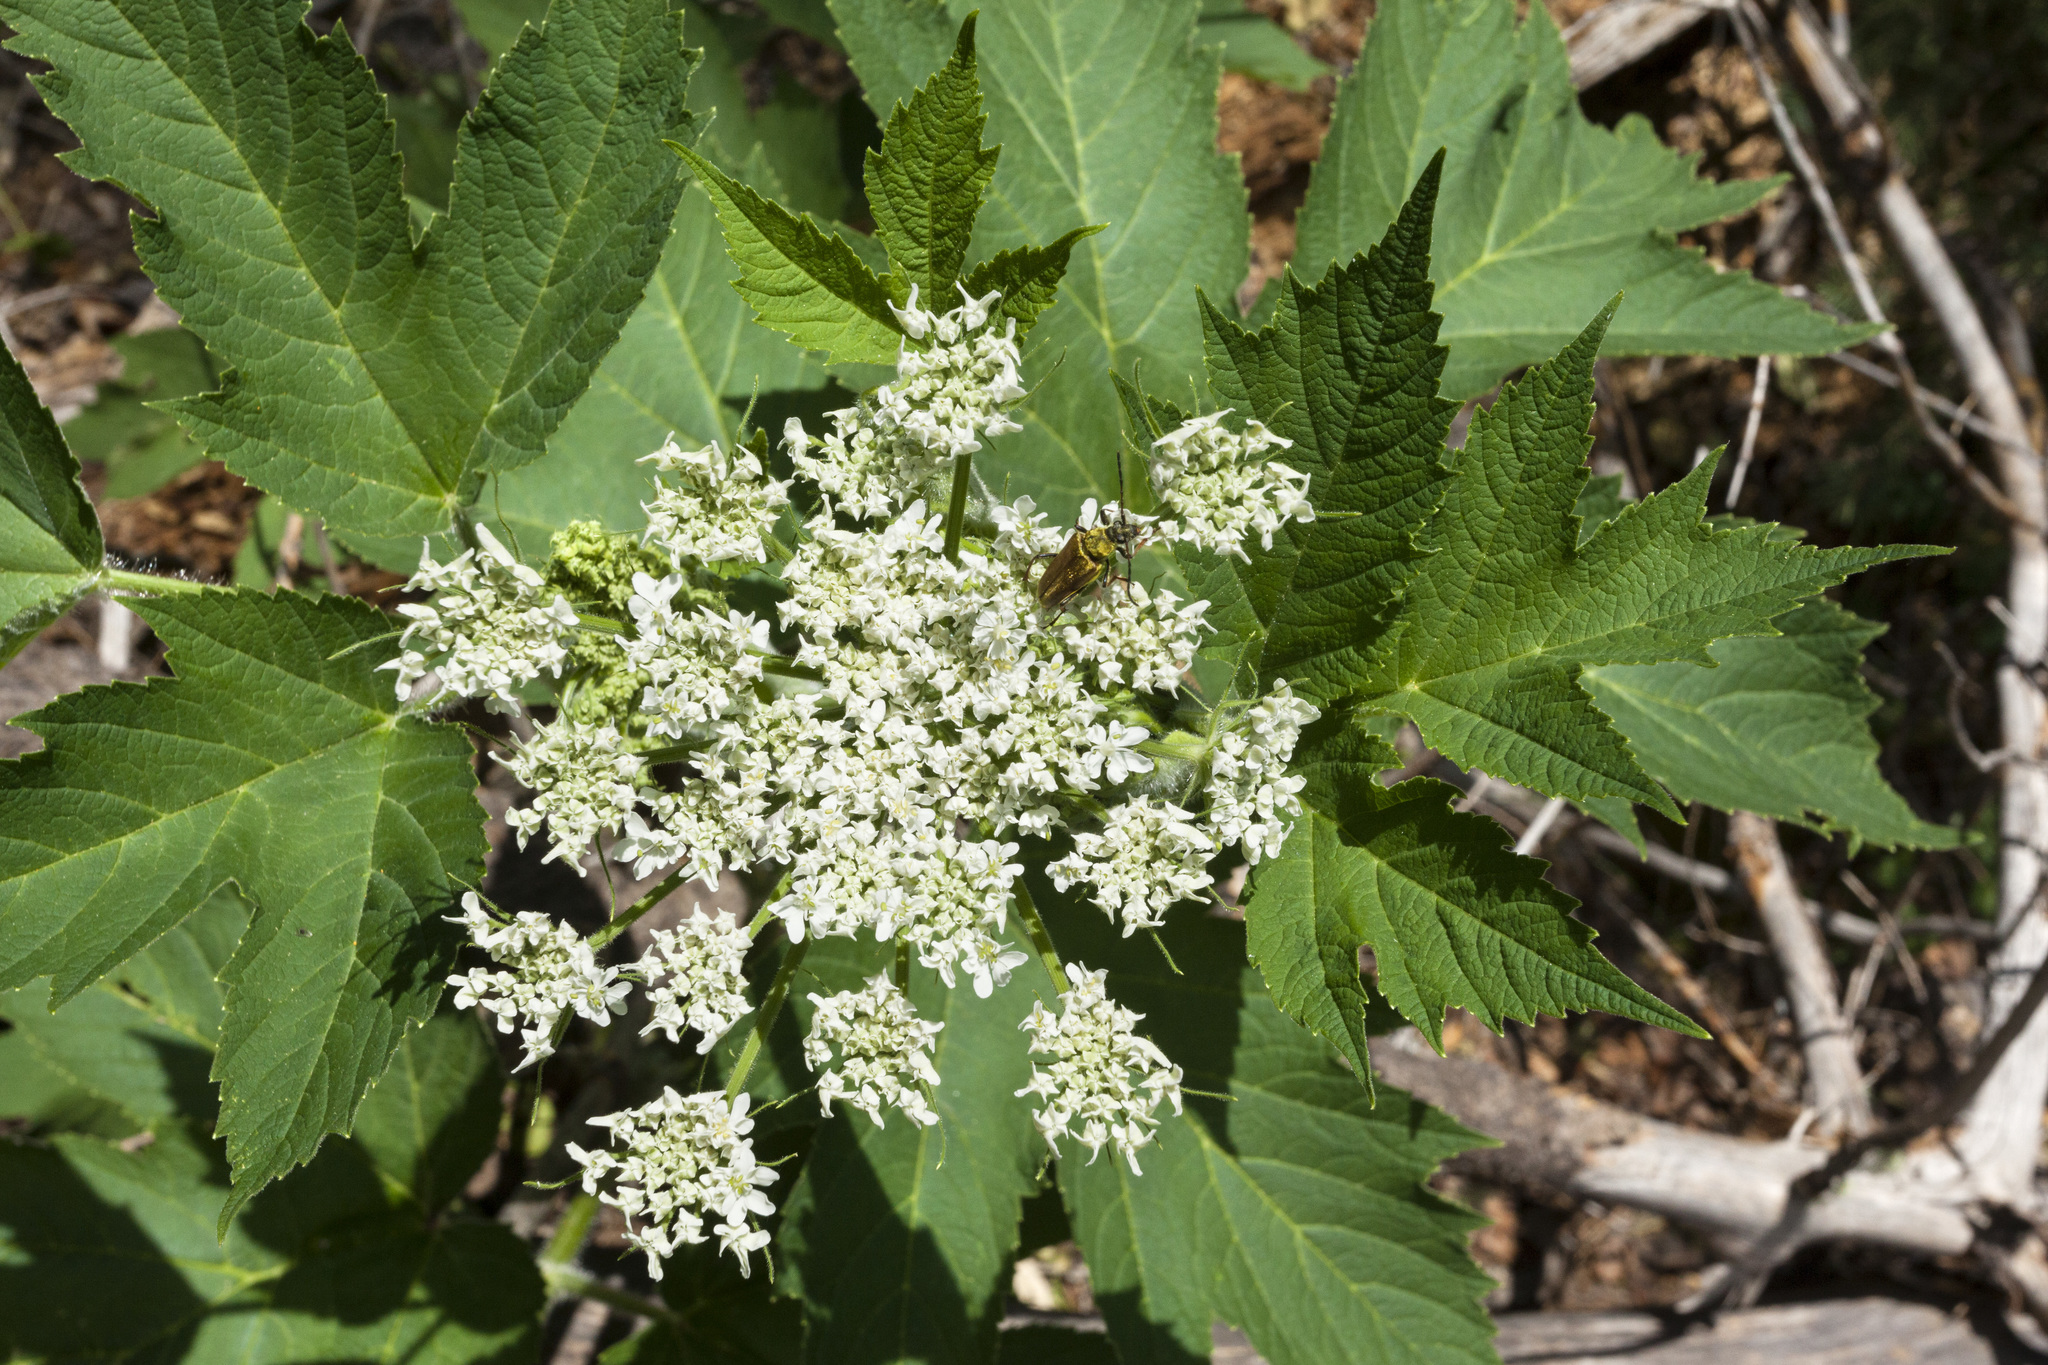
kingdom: Plantae
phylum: Tracheophyta
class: Magnoliopsida
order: Apiales
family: Apiaceae
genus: Heracleum
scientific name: Heracleum maximum
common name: American cow parsnip
